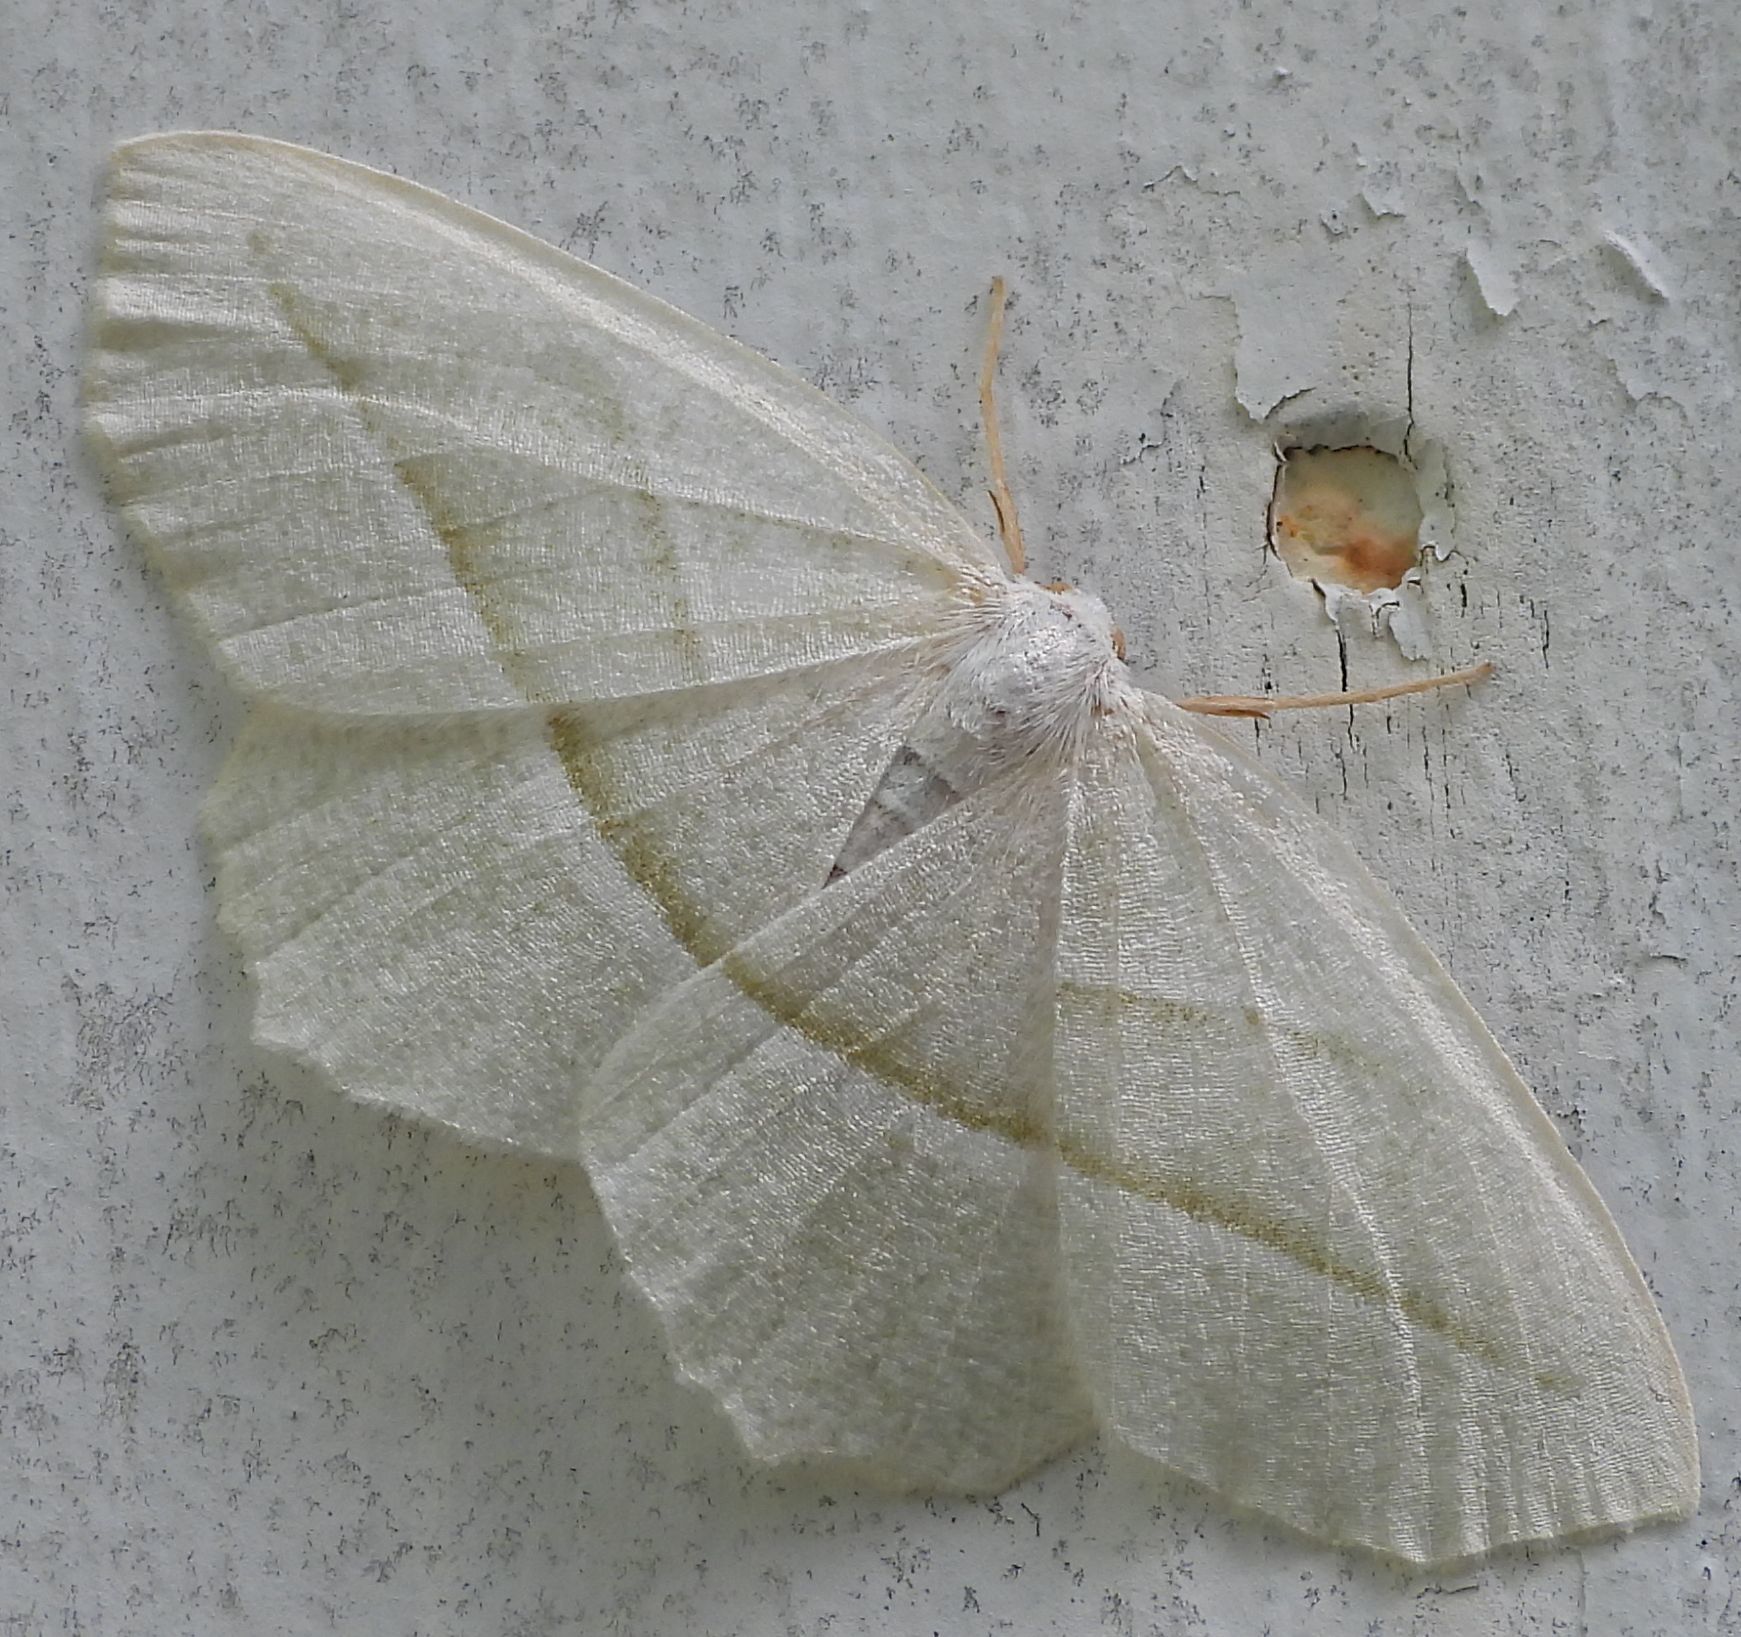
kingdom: Animalia
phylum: Arthropoda
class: Insecta
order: Lepidoptera
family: Geometridae
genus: Campaea
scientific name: Campaea perlata
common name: Fringed looper
